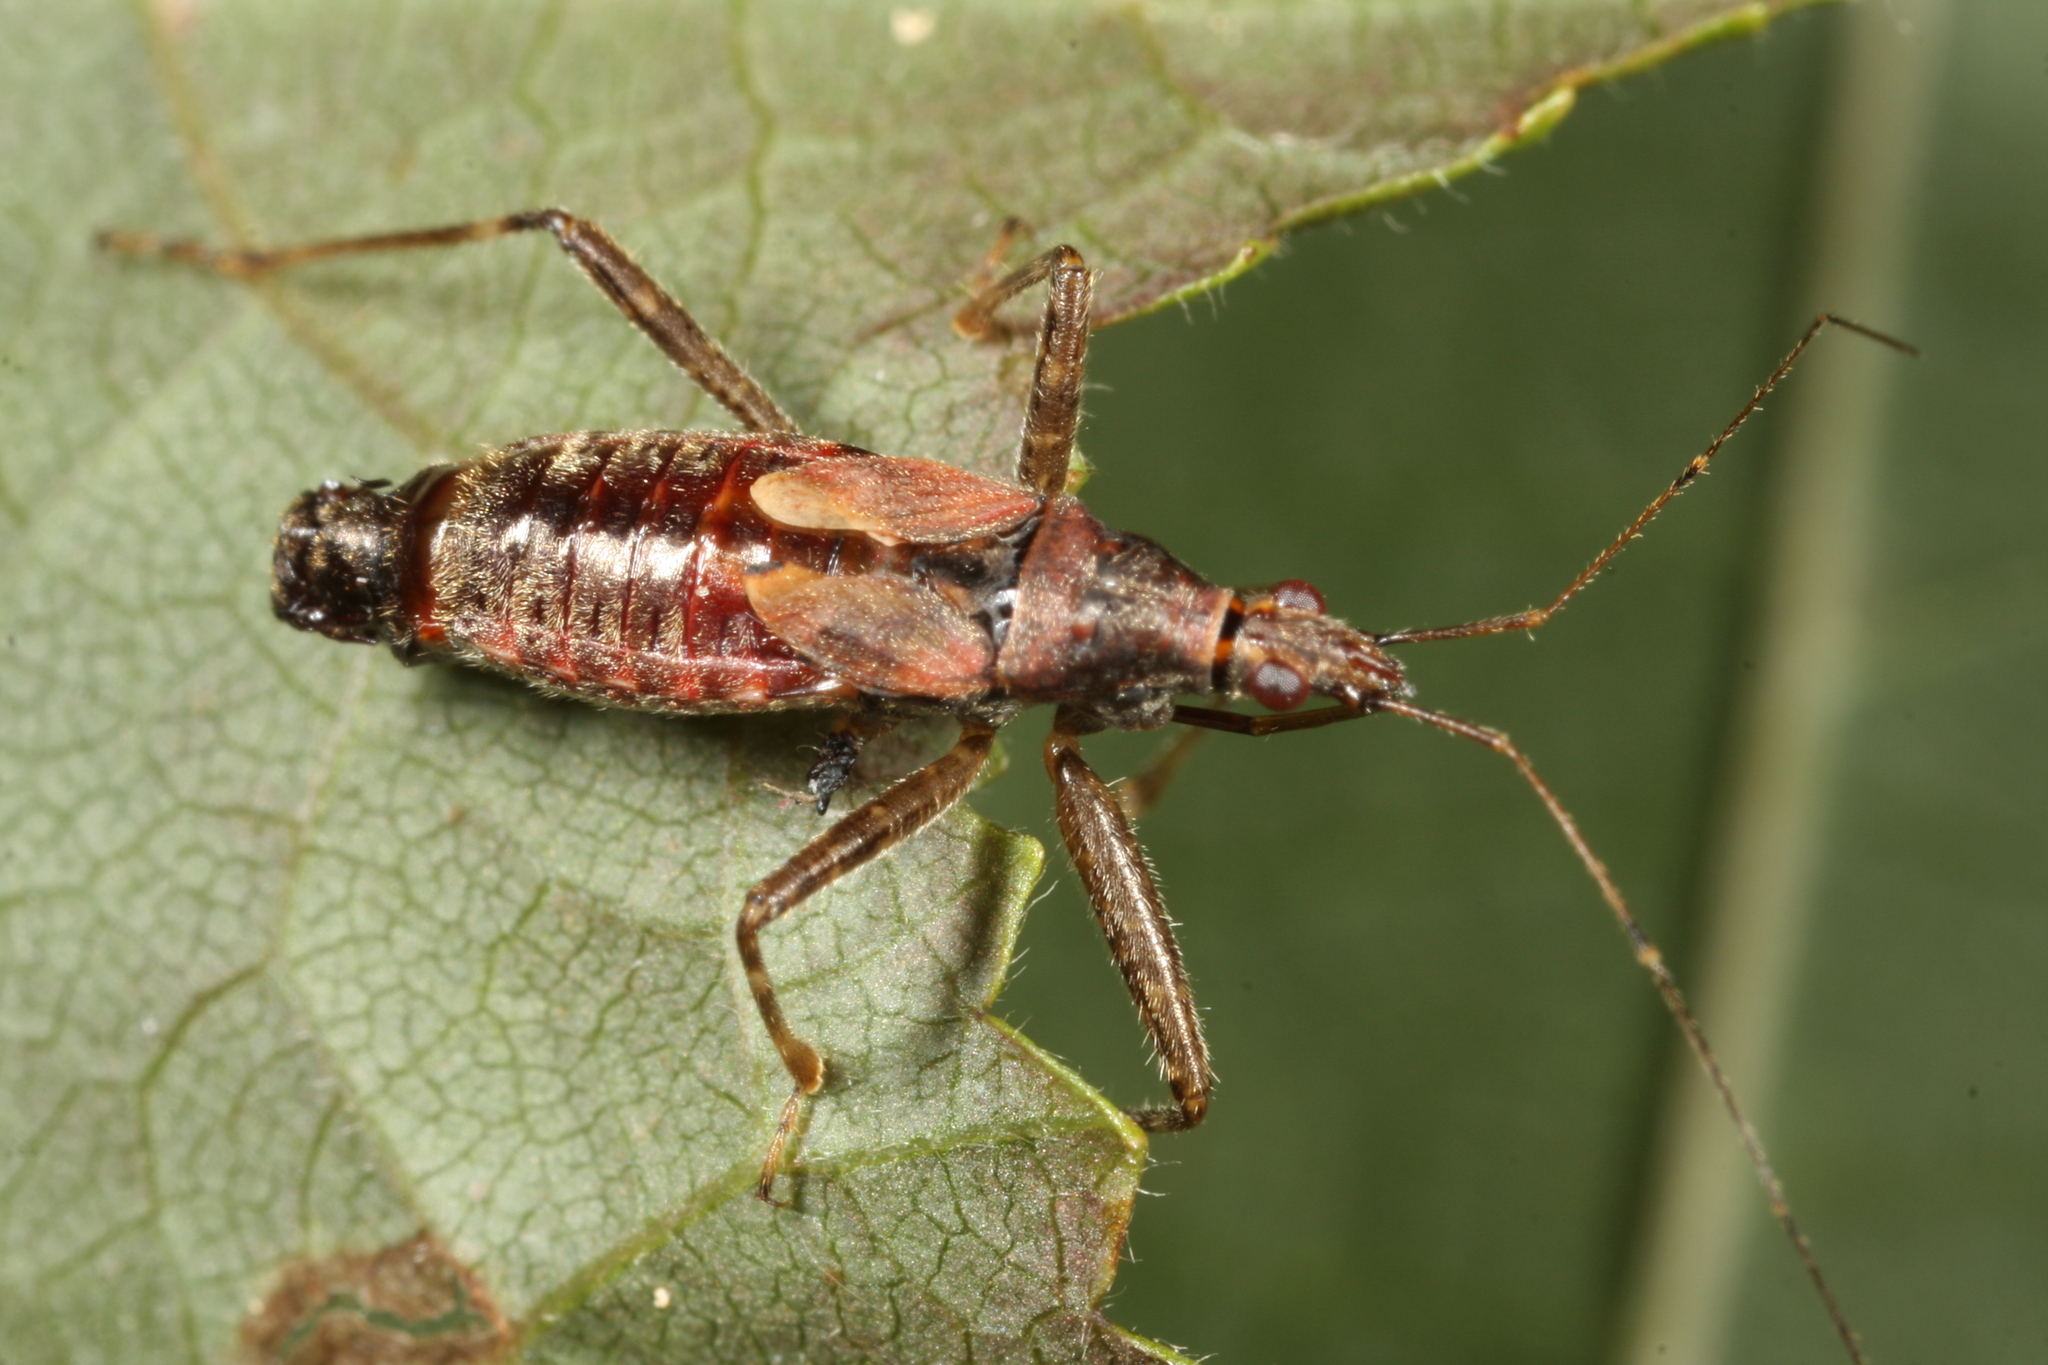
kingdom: Animalia
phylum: Arthropoda
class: Insecta
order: Hemiptera
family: Nabidae
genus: Himacerus
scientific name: Himacerus apterus
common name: Tree damsel bug
